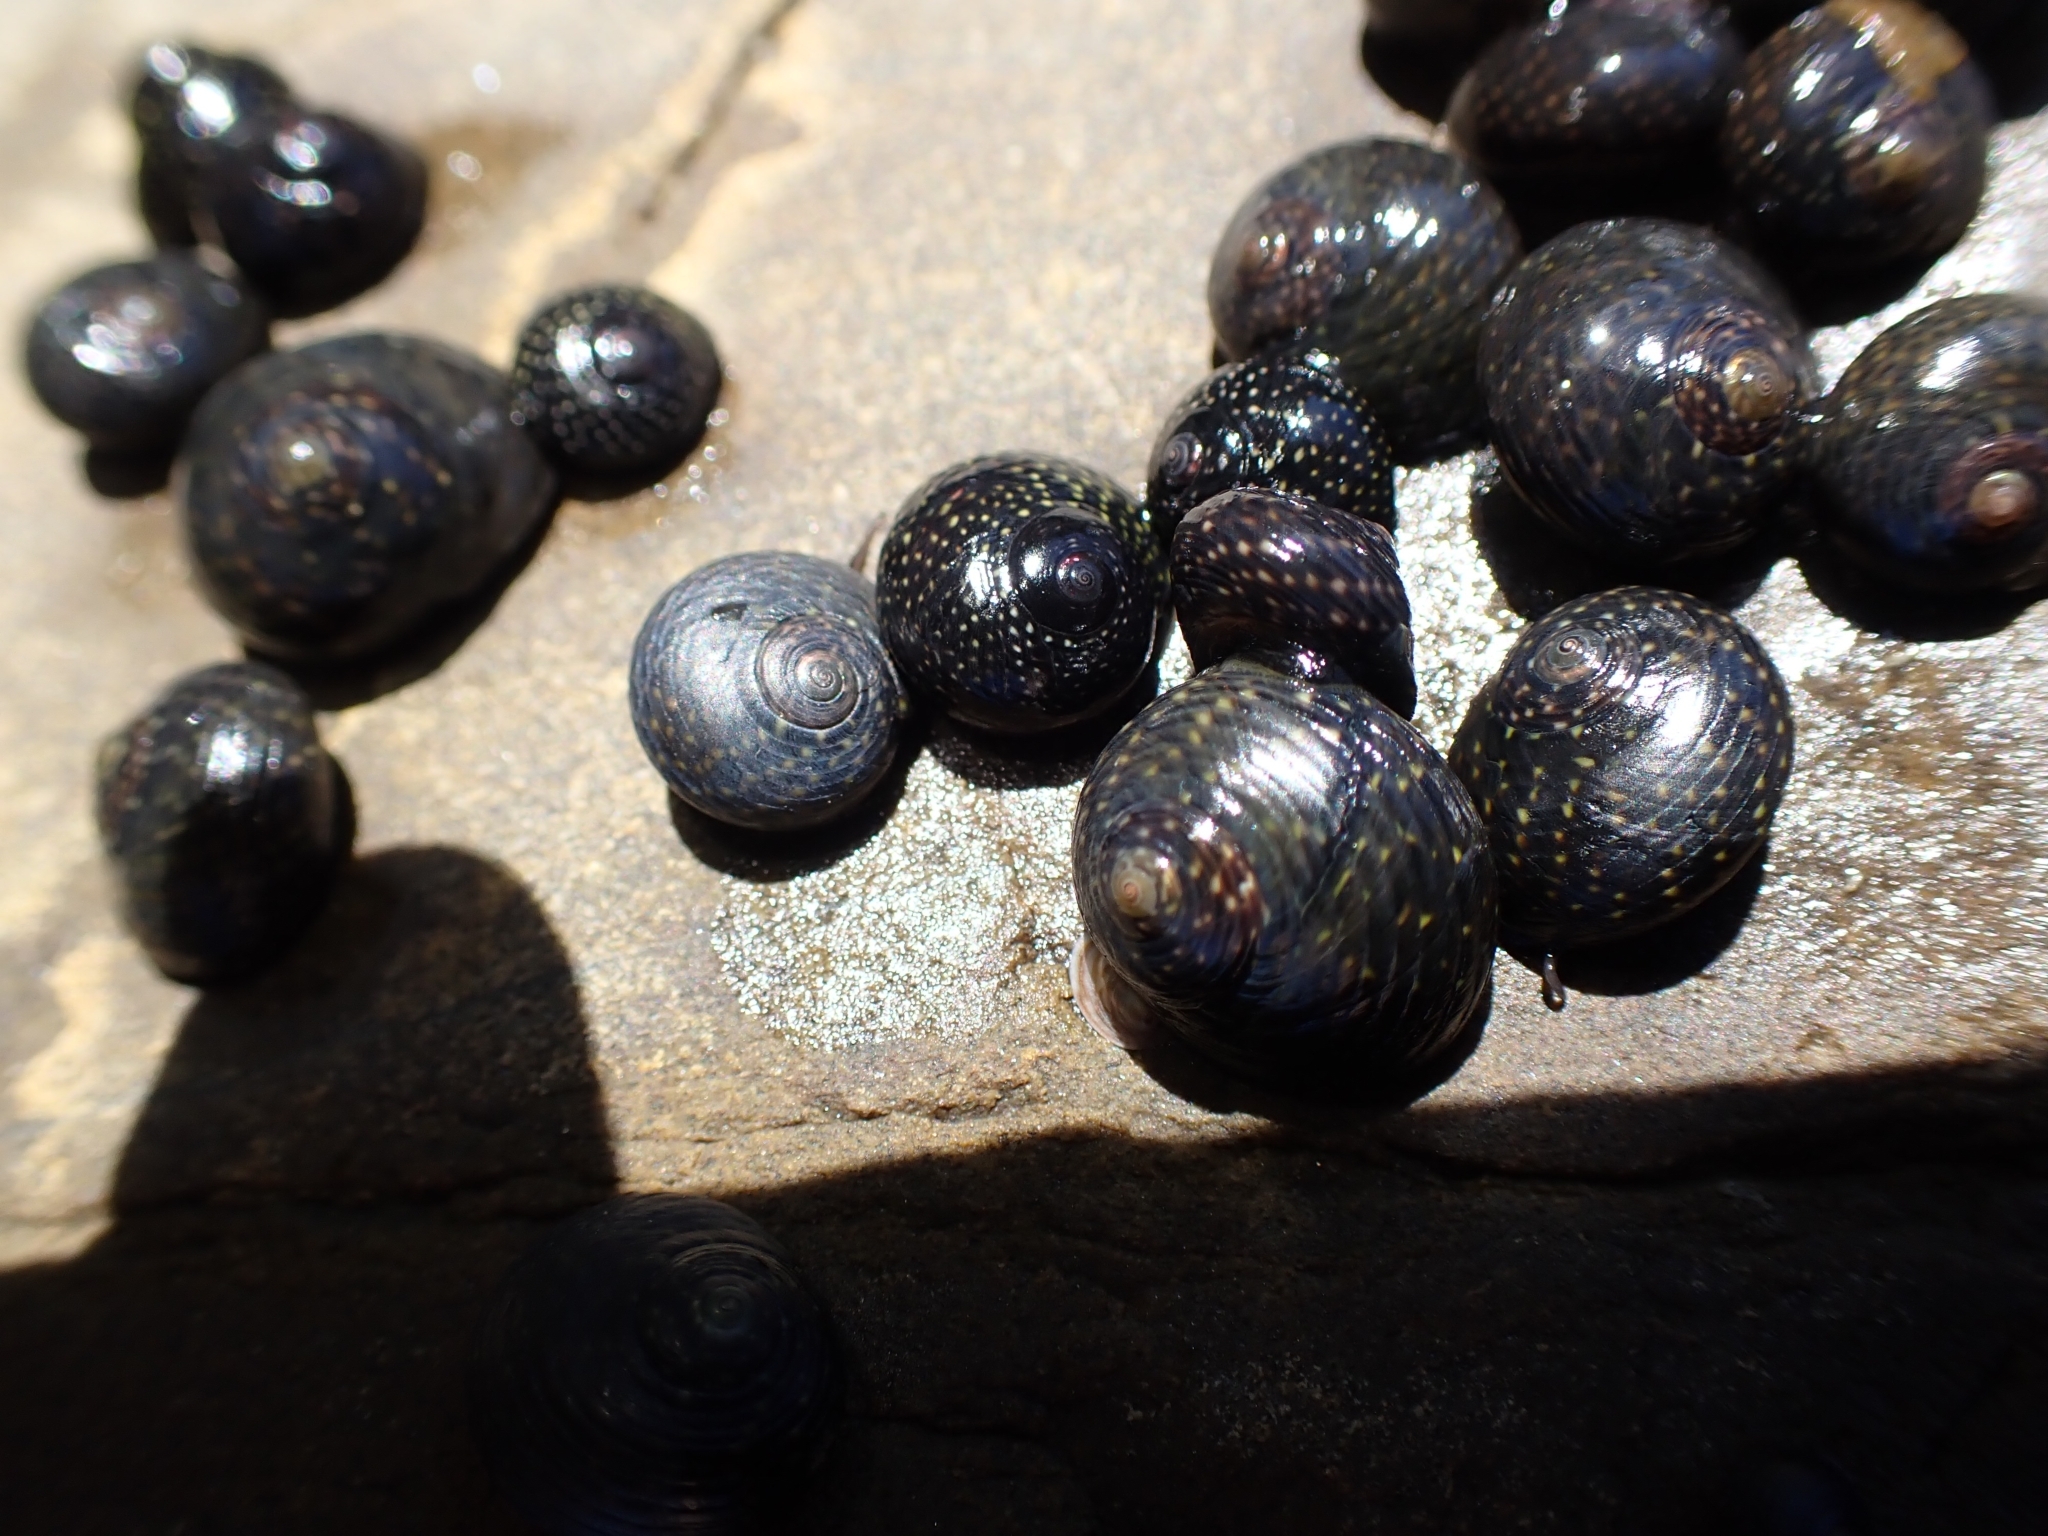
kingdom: Animalia
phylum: Mollusca
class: Gastropoda
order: Trochida
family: Trochidae
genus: Diloma
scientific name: Diloma aridum
